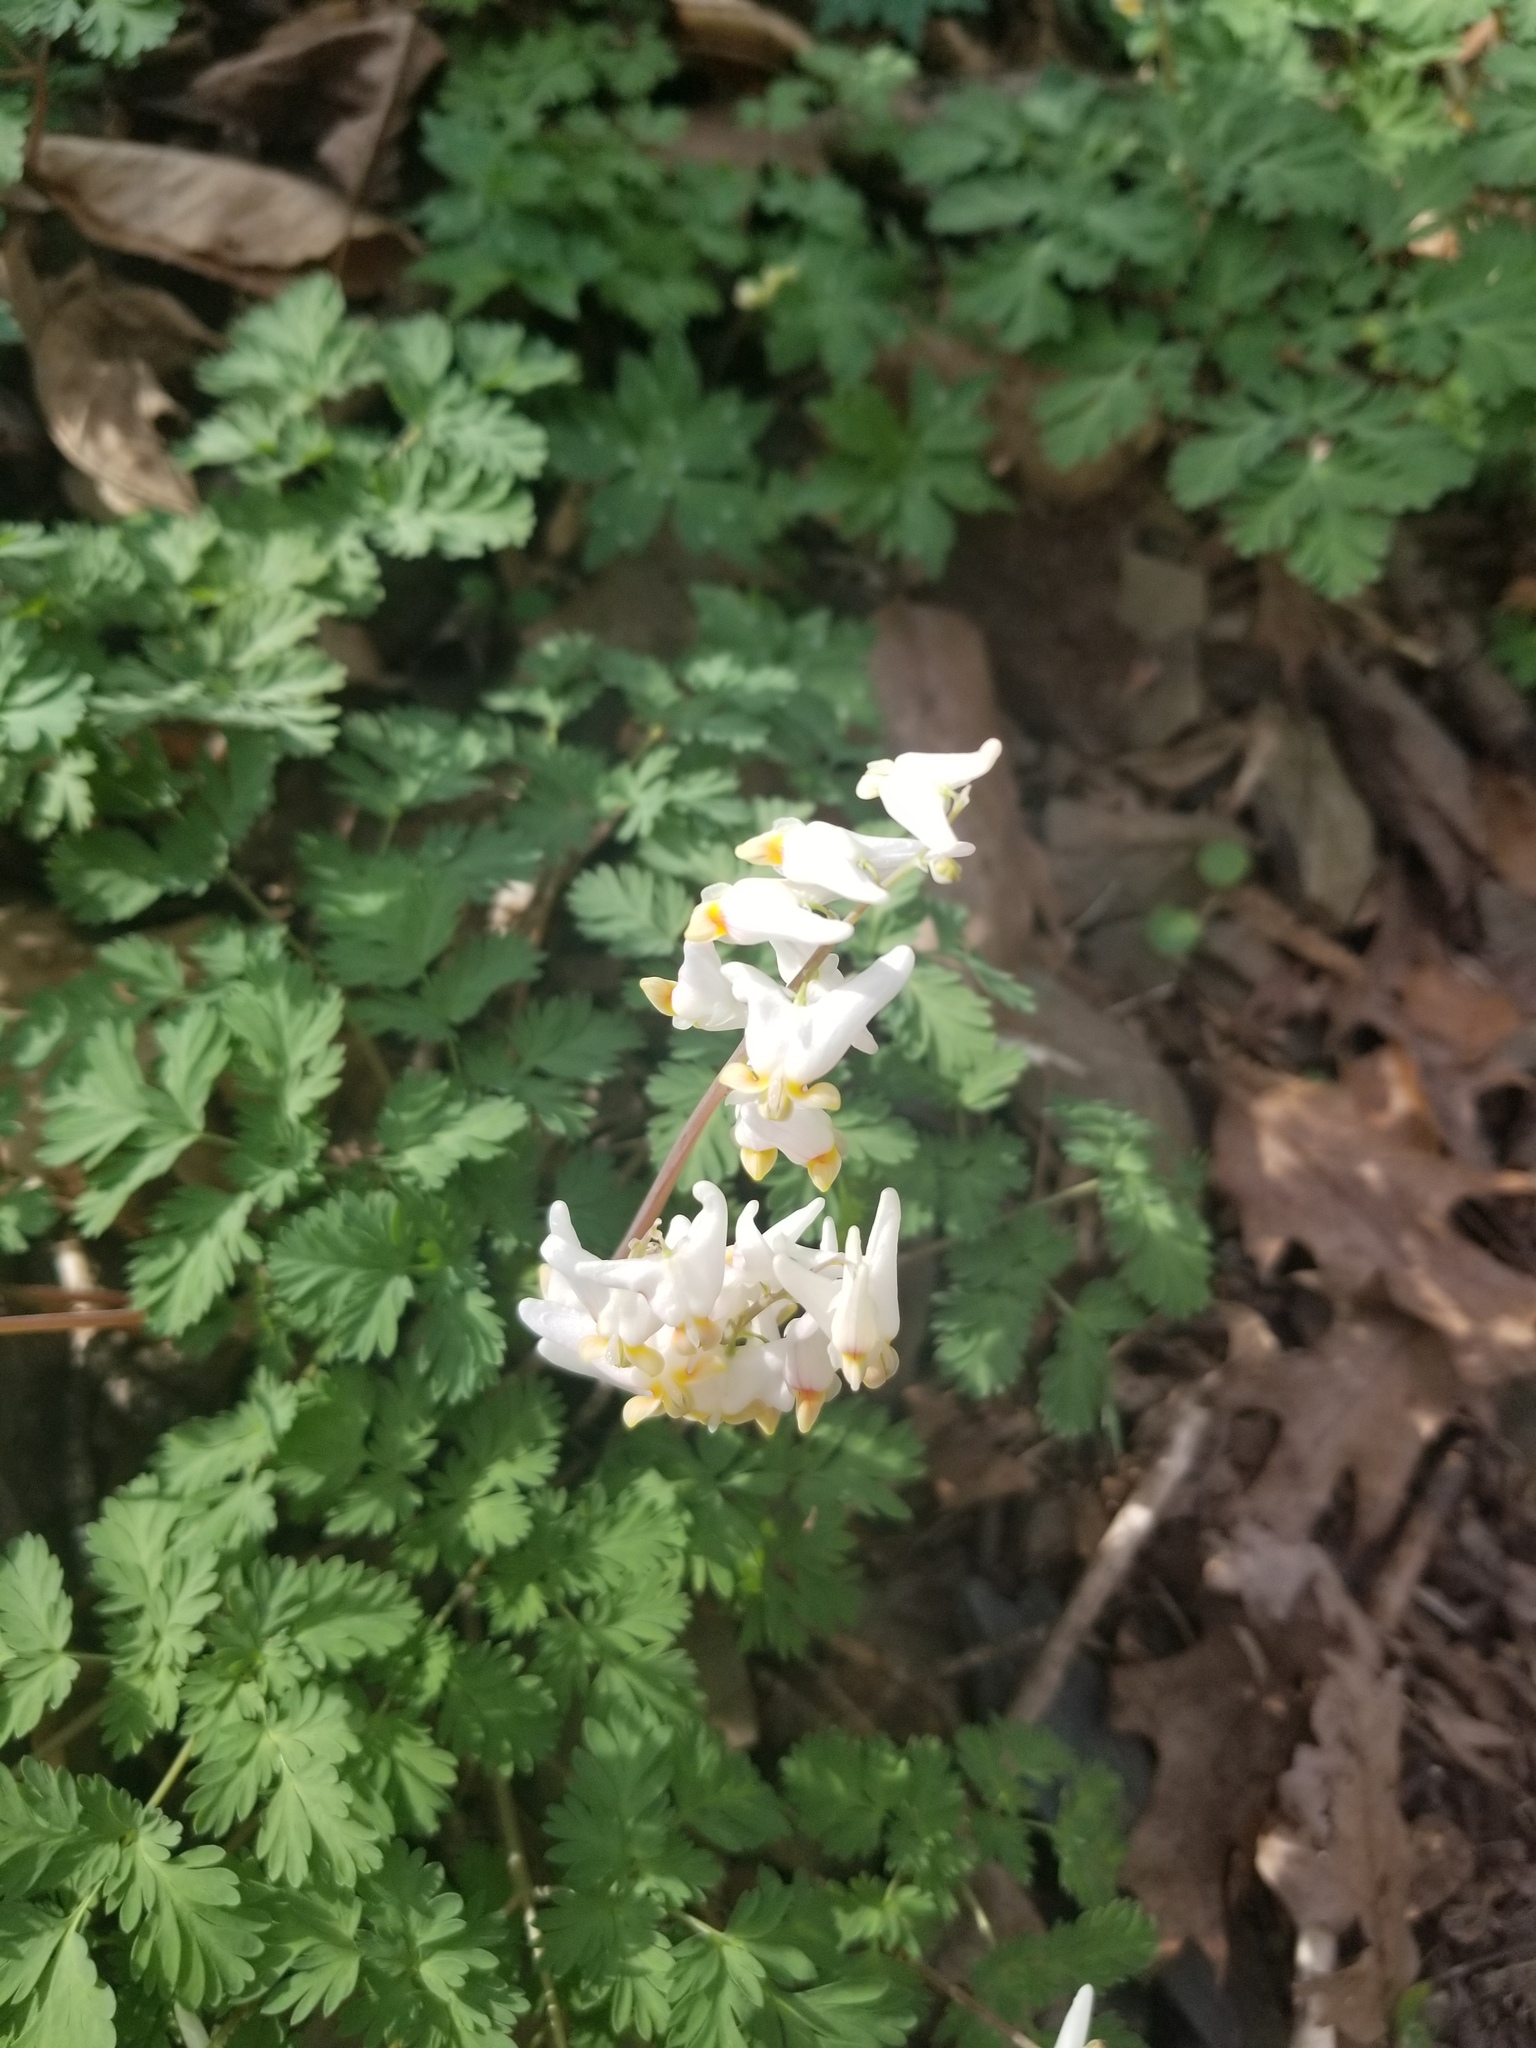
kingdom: Plantae
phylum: Tracheophyta
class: Magnoliopsida
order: Ranunculales
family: Papaveraceae
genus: Dicentra
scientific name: Dicentra cucullaria
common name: Dutchman's breeches
